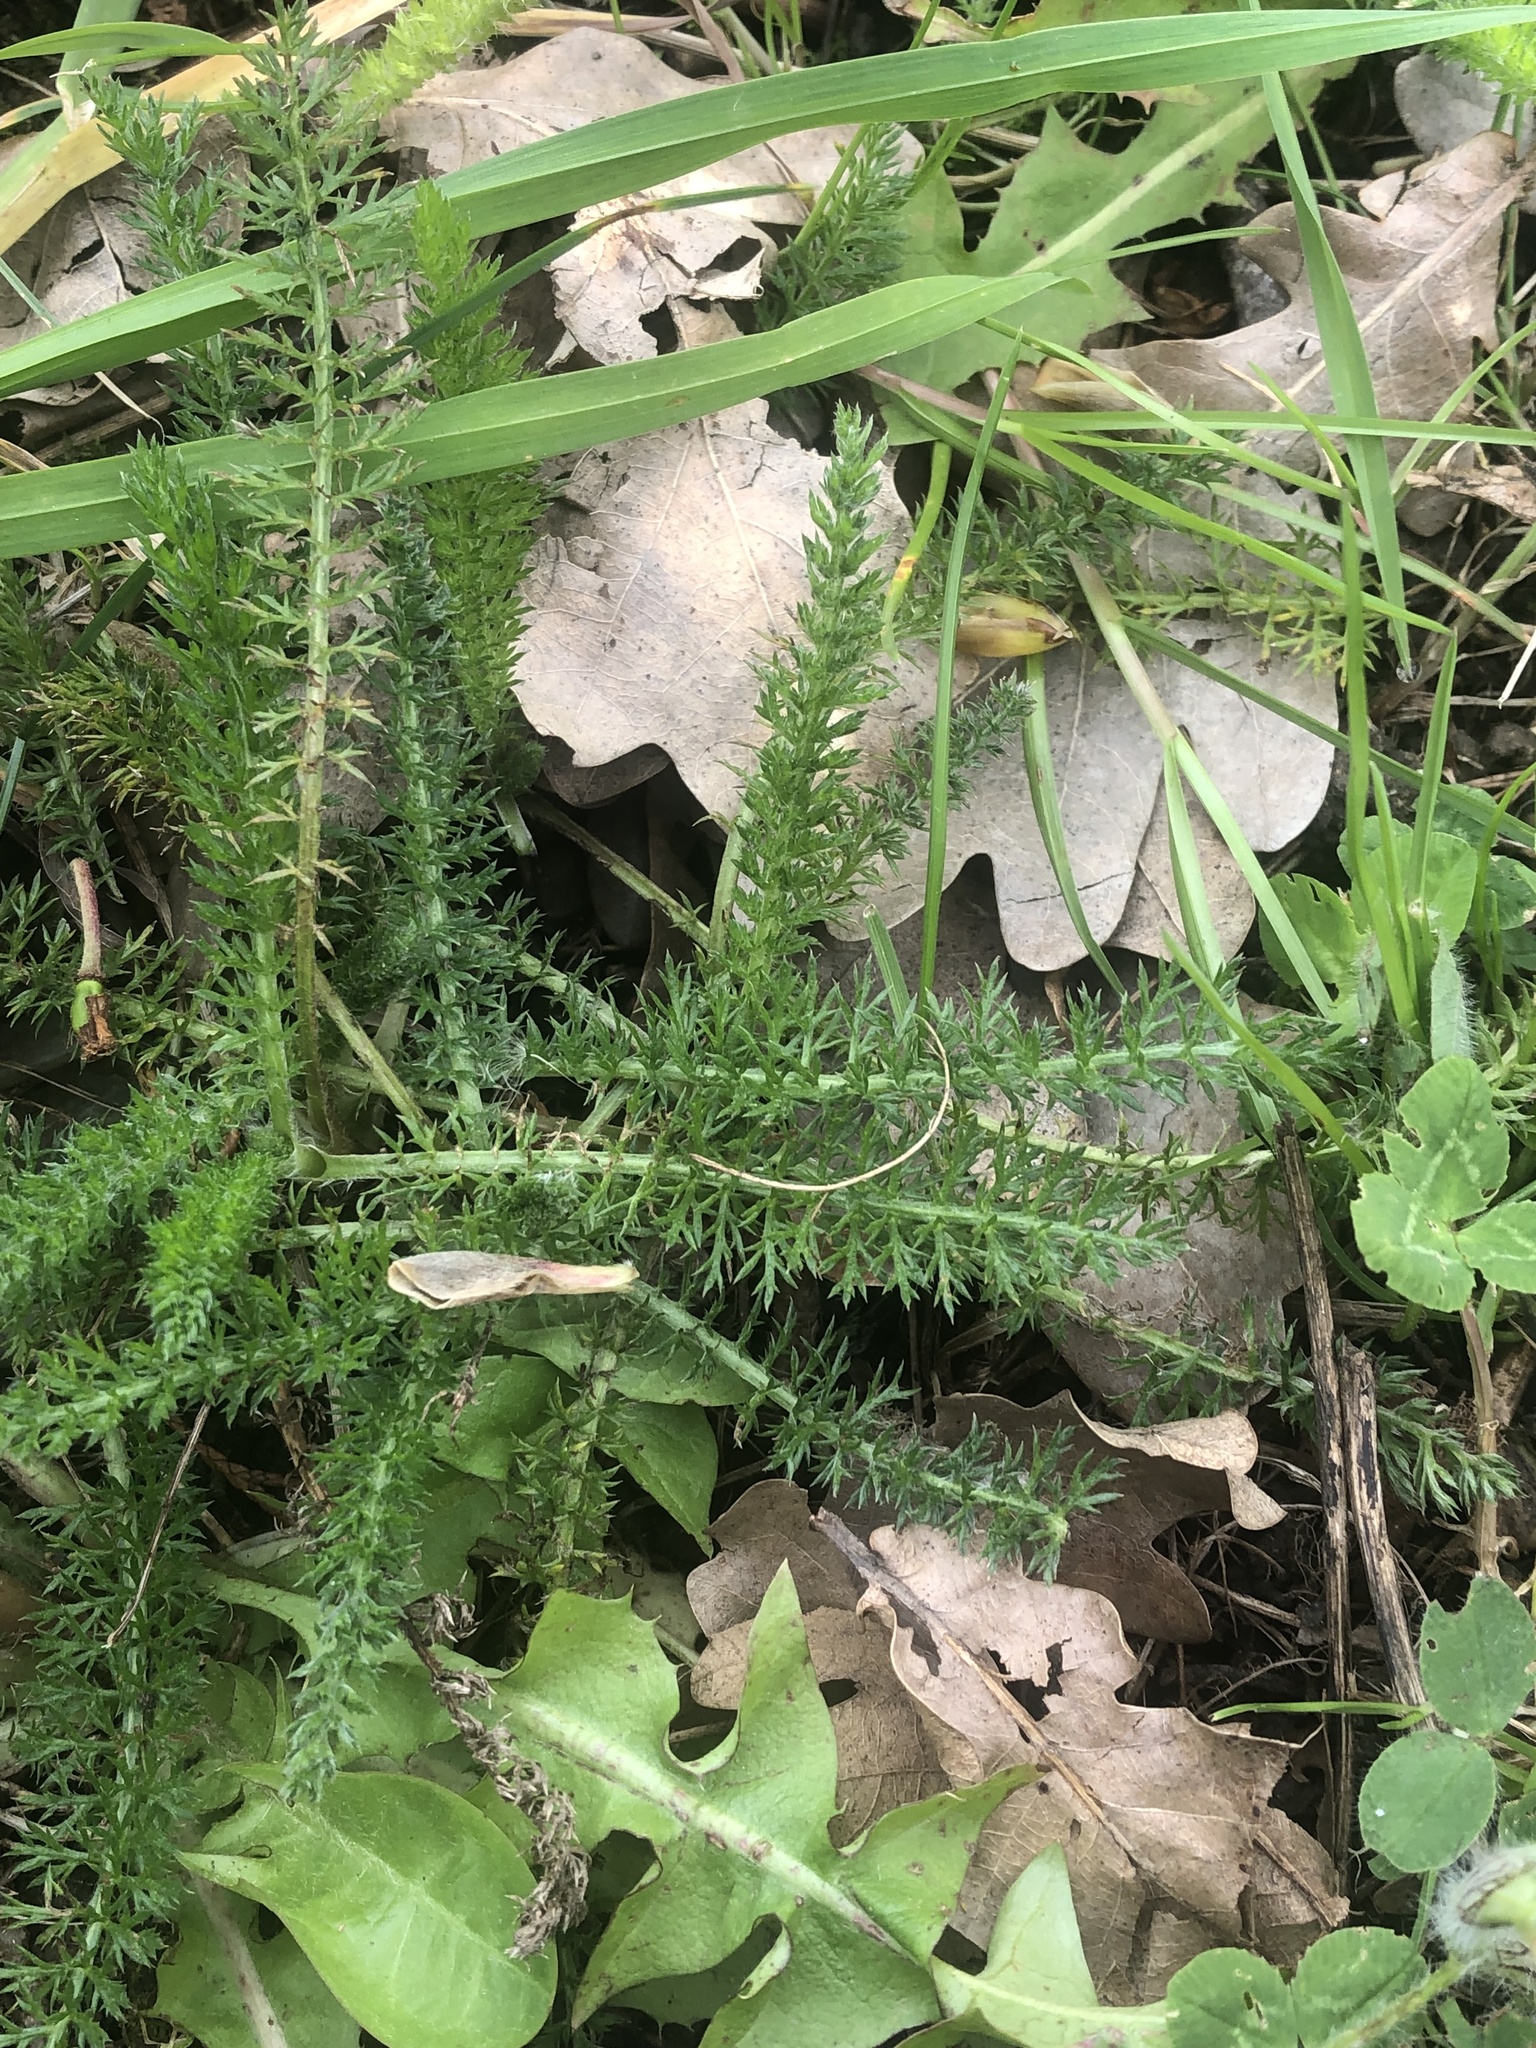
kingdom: Plantae
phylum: Tracheophyta
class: Magnoliopsida
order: Asterales
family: Asteraceae
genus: Achillea
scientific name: Achillea millefolium
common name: Yarrow
